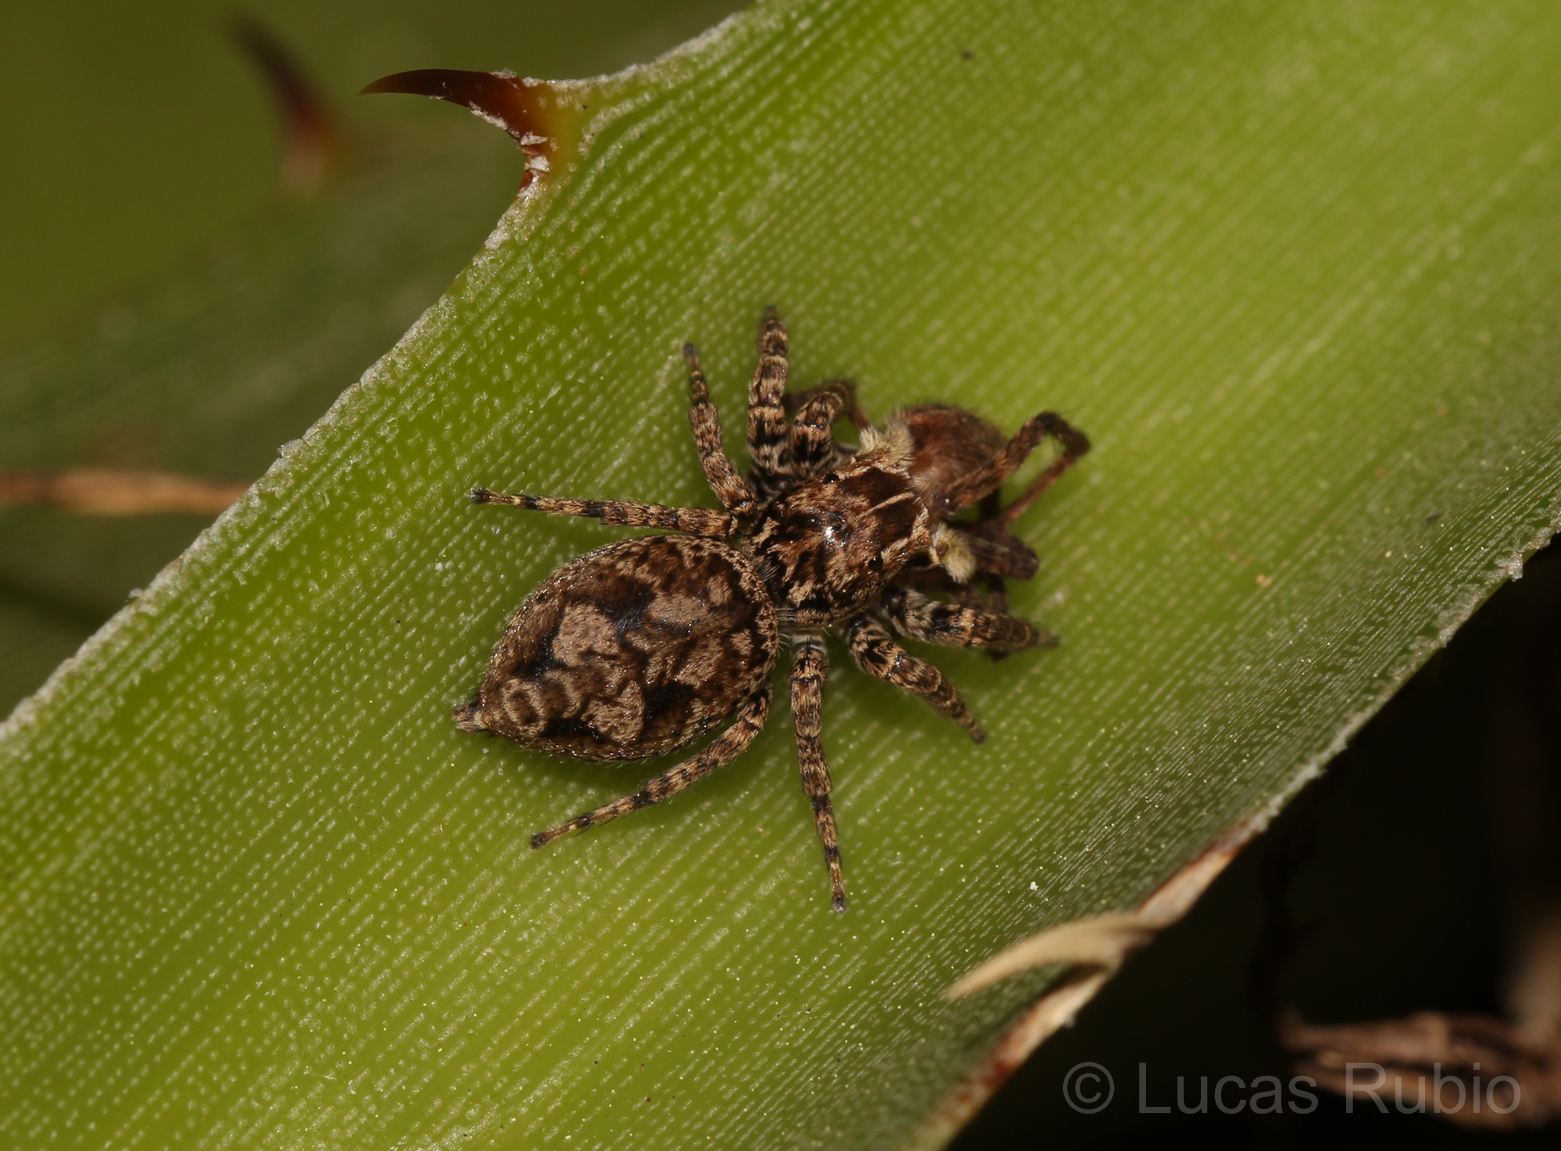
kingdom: Animalia
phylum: Arthropoda
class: Arachnida
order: Araneae
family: Salticidae
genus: Sumampattus
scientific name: Sumampattus quinqueradiatus
